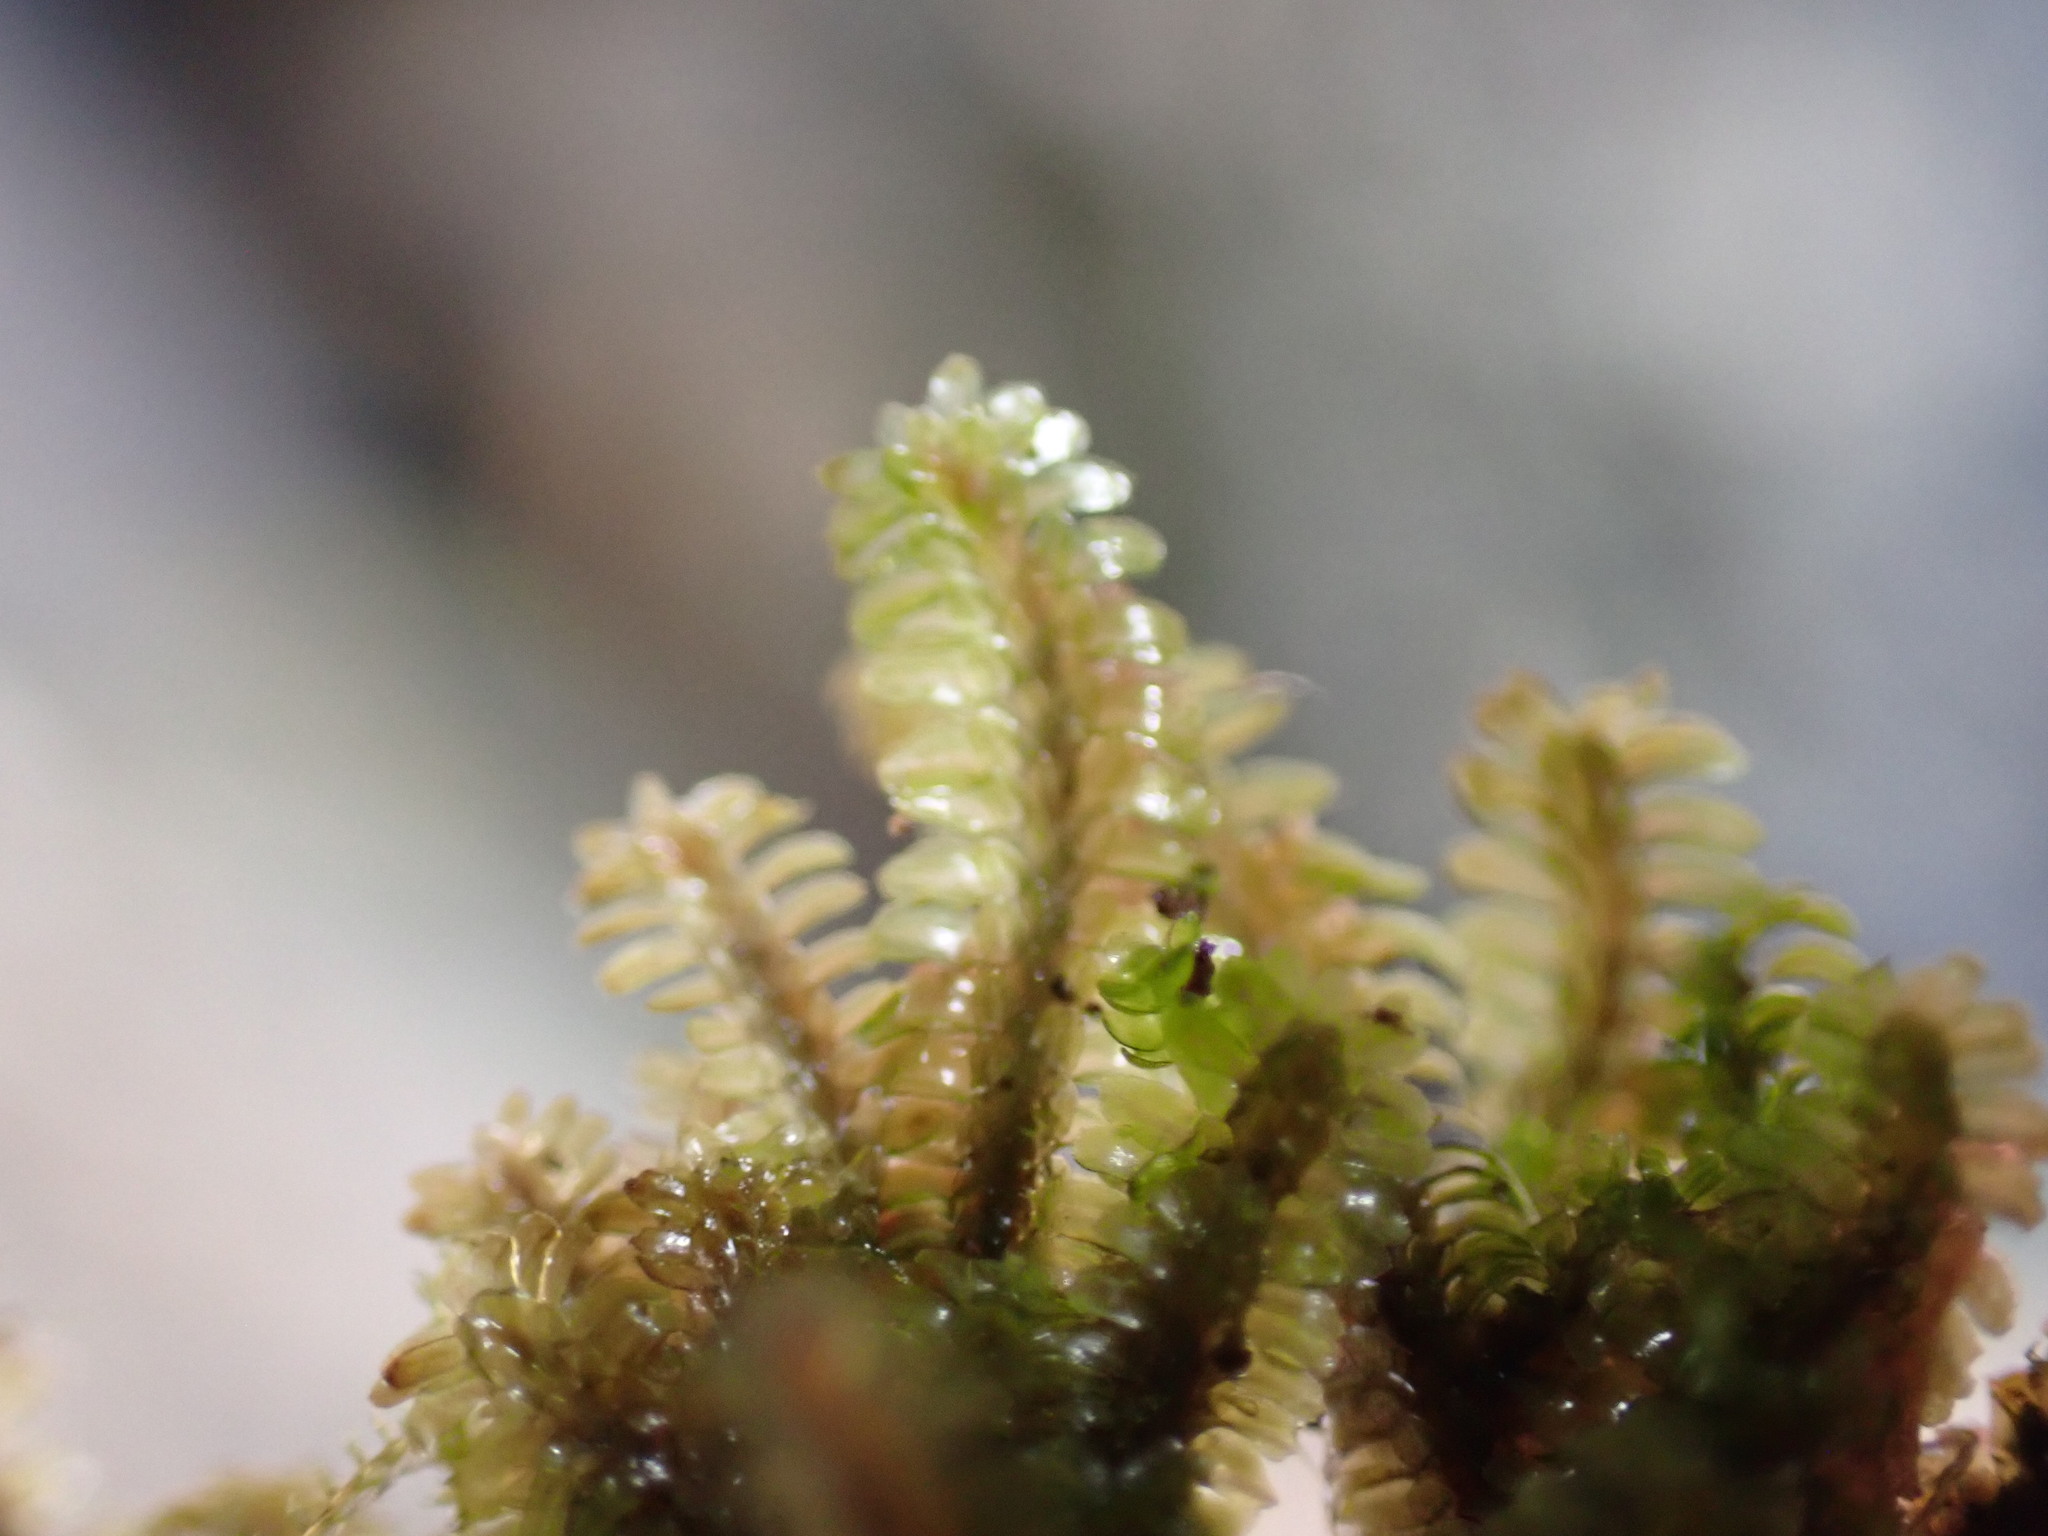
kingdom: Plantae
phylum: Marchantiophyta
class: Jungermanniopsida
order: Jungermanniales
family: Scapaniaceae
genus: Diplophyllum
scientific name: Diplophyllum albicans
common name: White earwort
